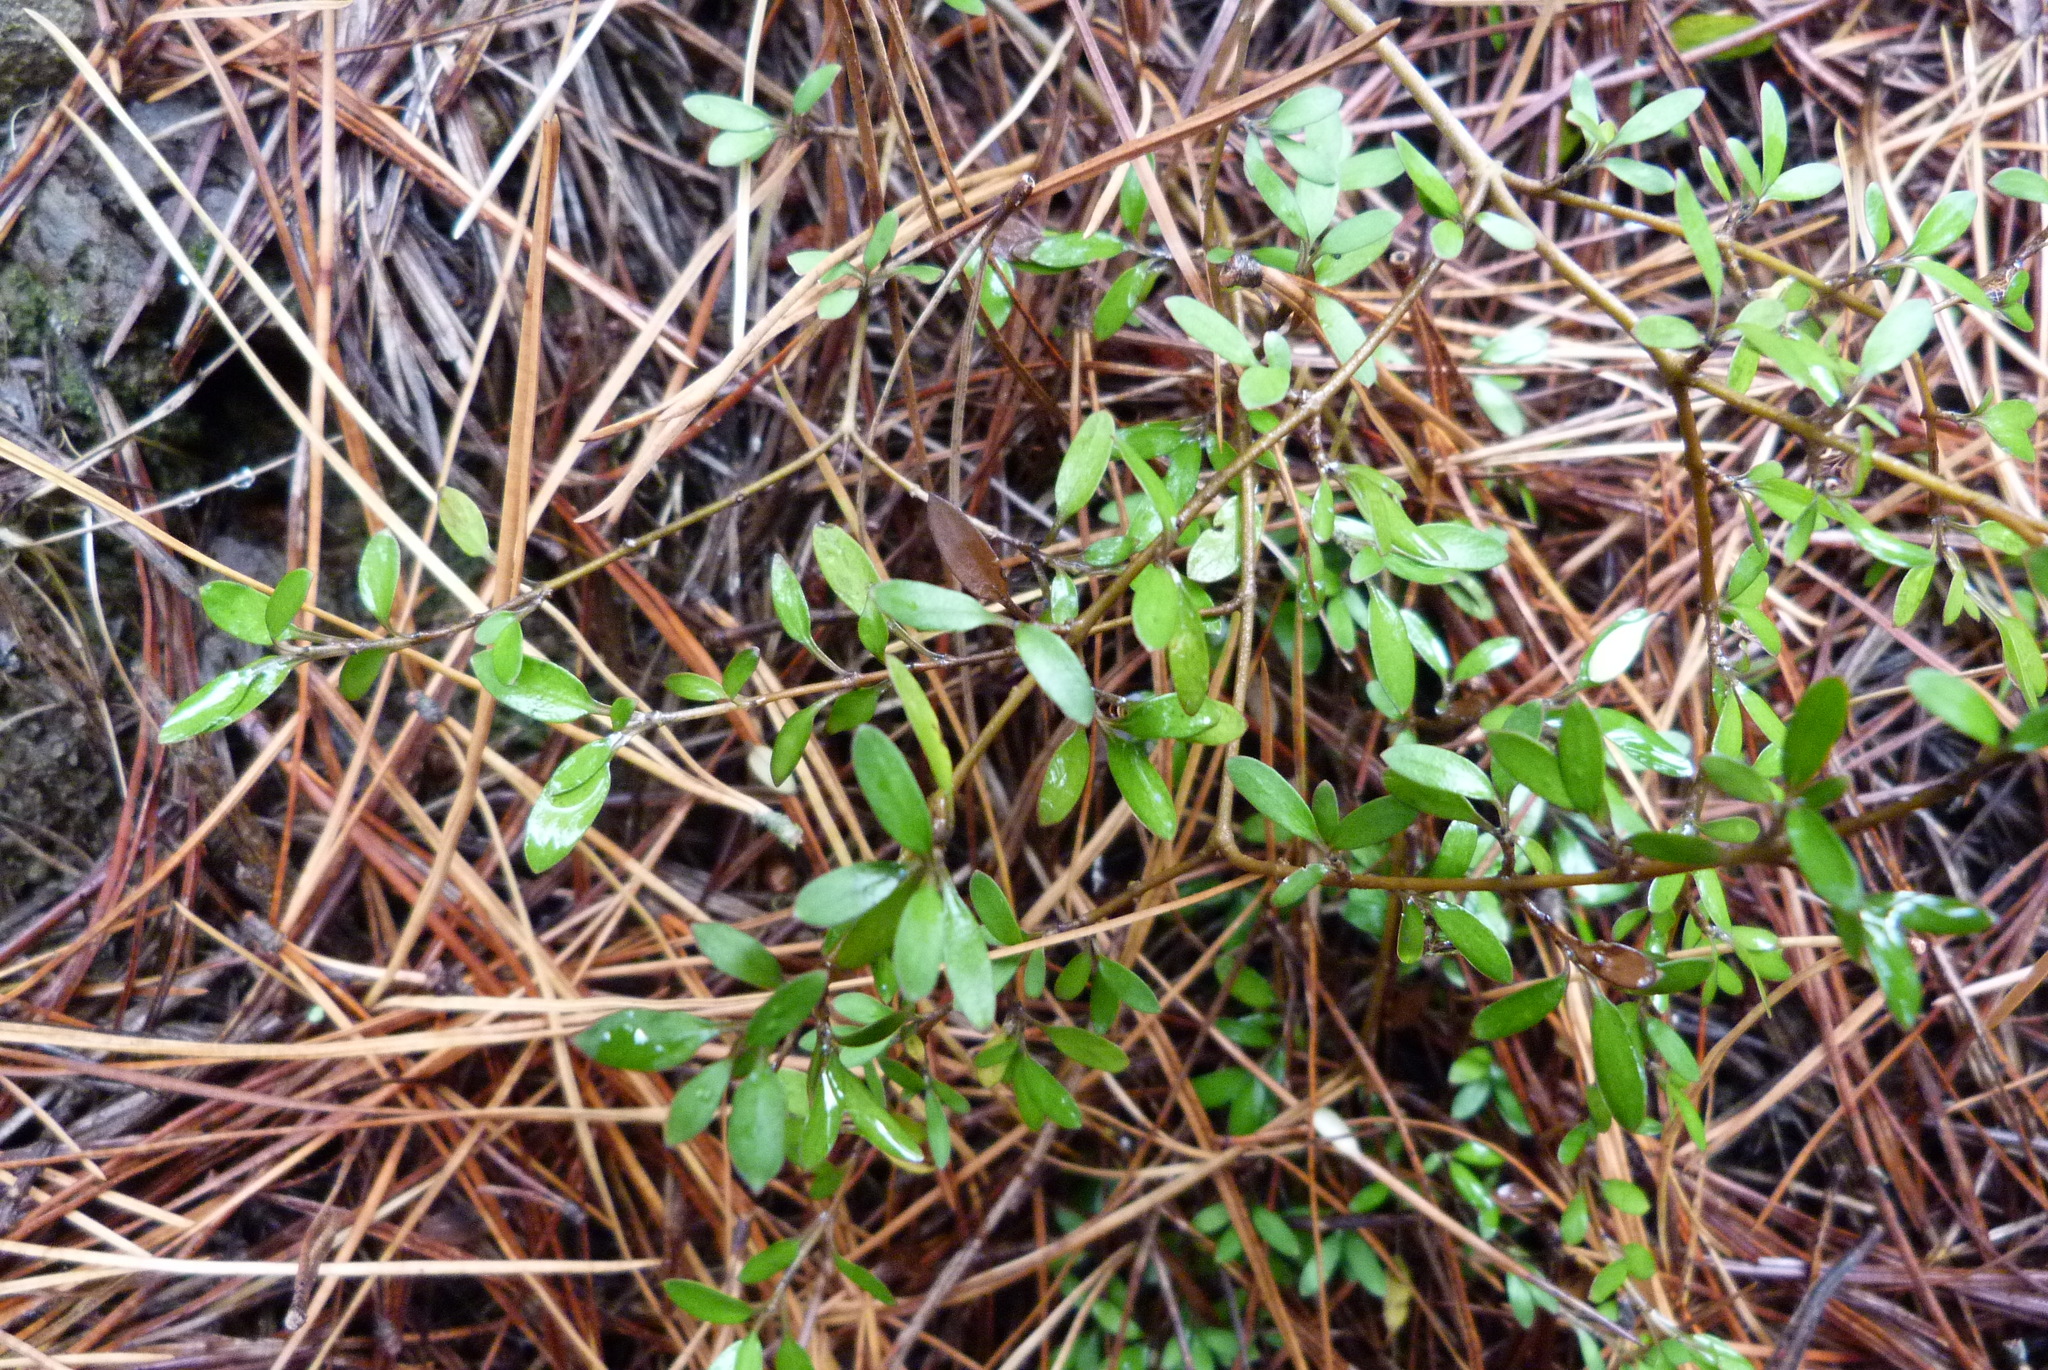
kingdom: Plantae
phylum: Tracheophyta
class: Magnoliopsida
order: Gentianales
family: Rubiaceae
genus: Coprosma
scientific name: Coprosma propinqua
